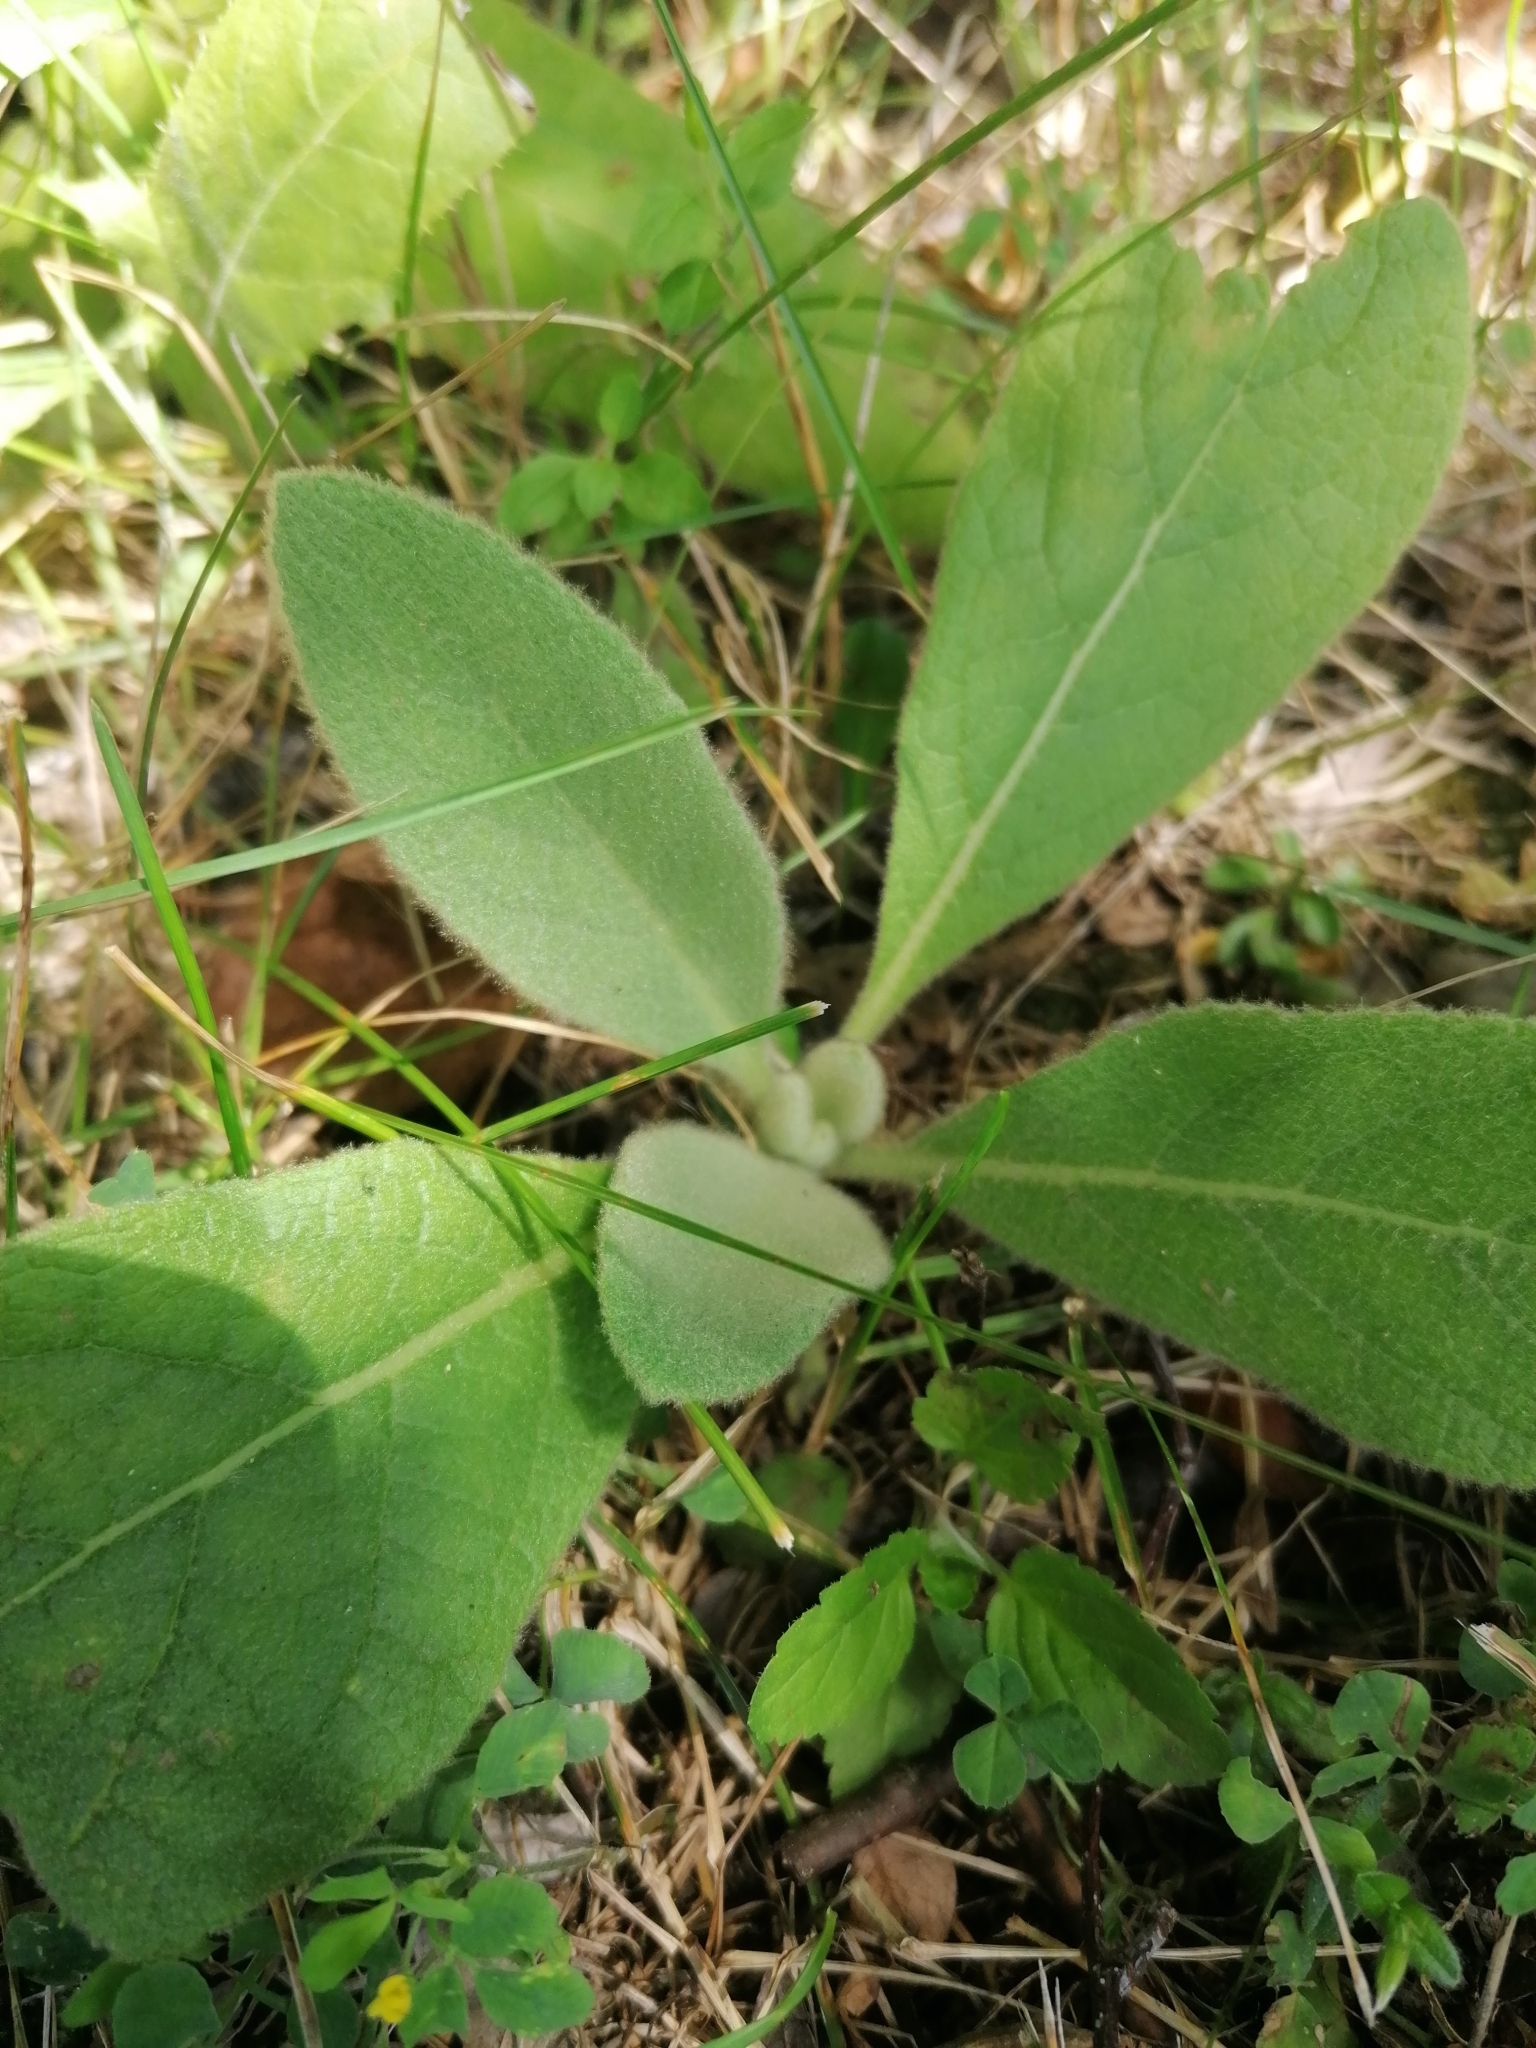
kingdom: Plantae
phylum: Tracheophyta
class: Magnoliopsida
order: Lamiales
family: Scrophulariaceae
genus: Verbascum
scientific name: Verbascum thapsus
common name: Common mullein
